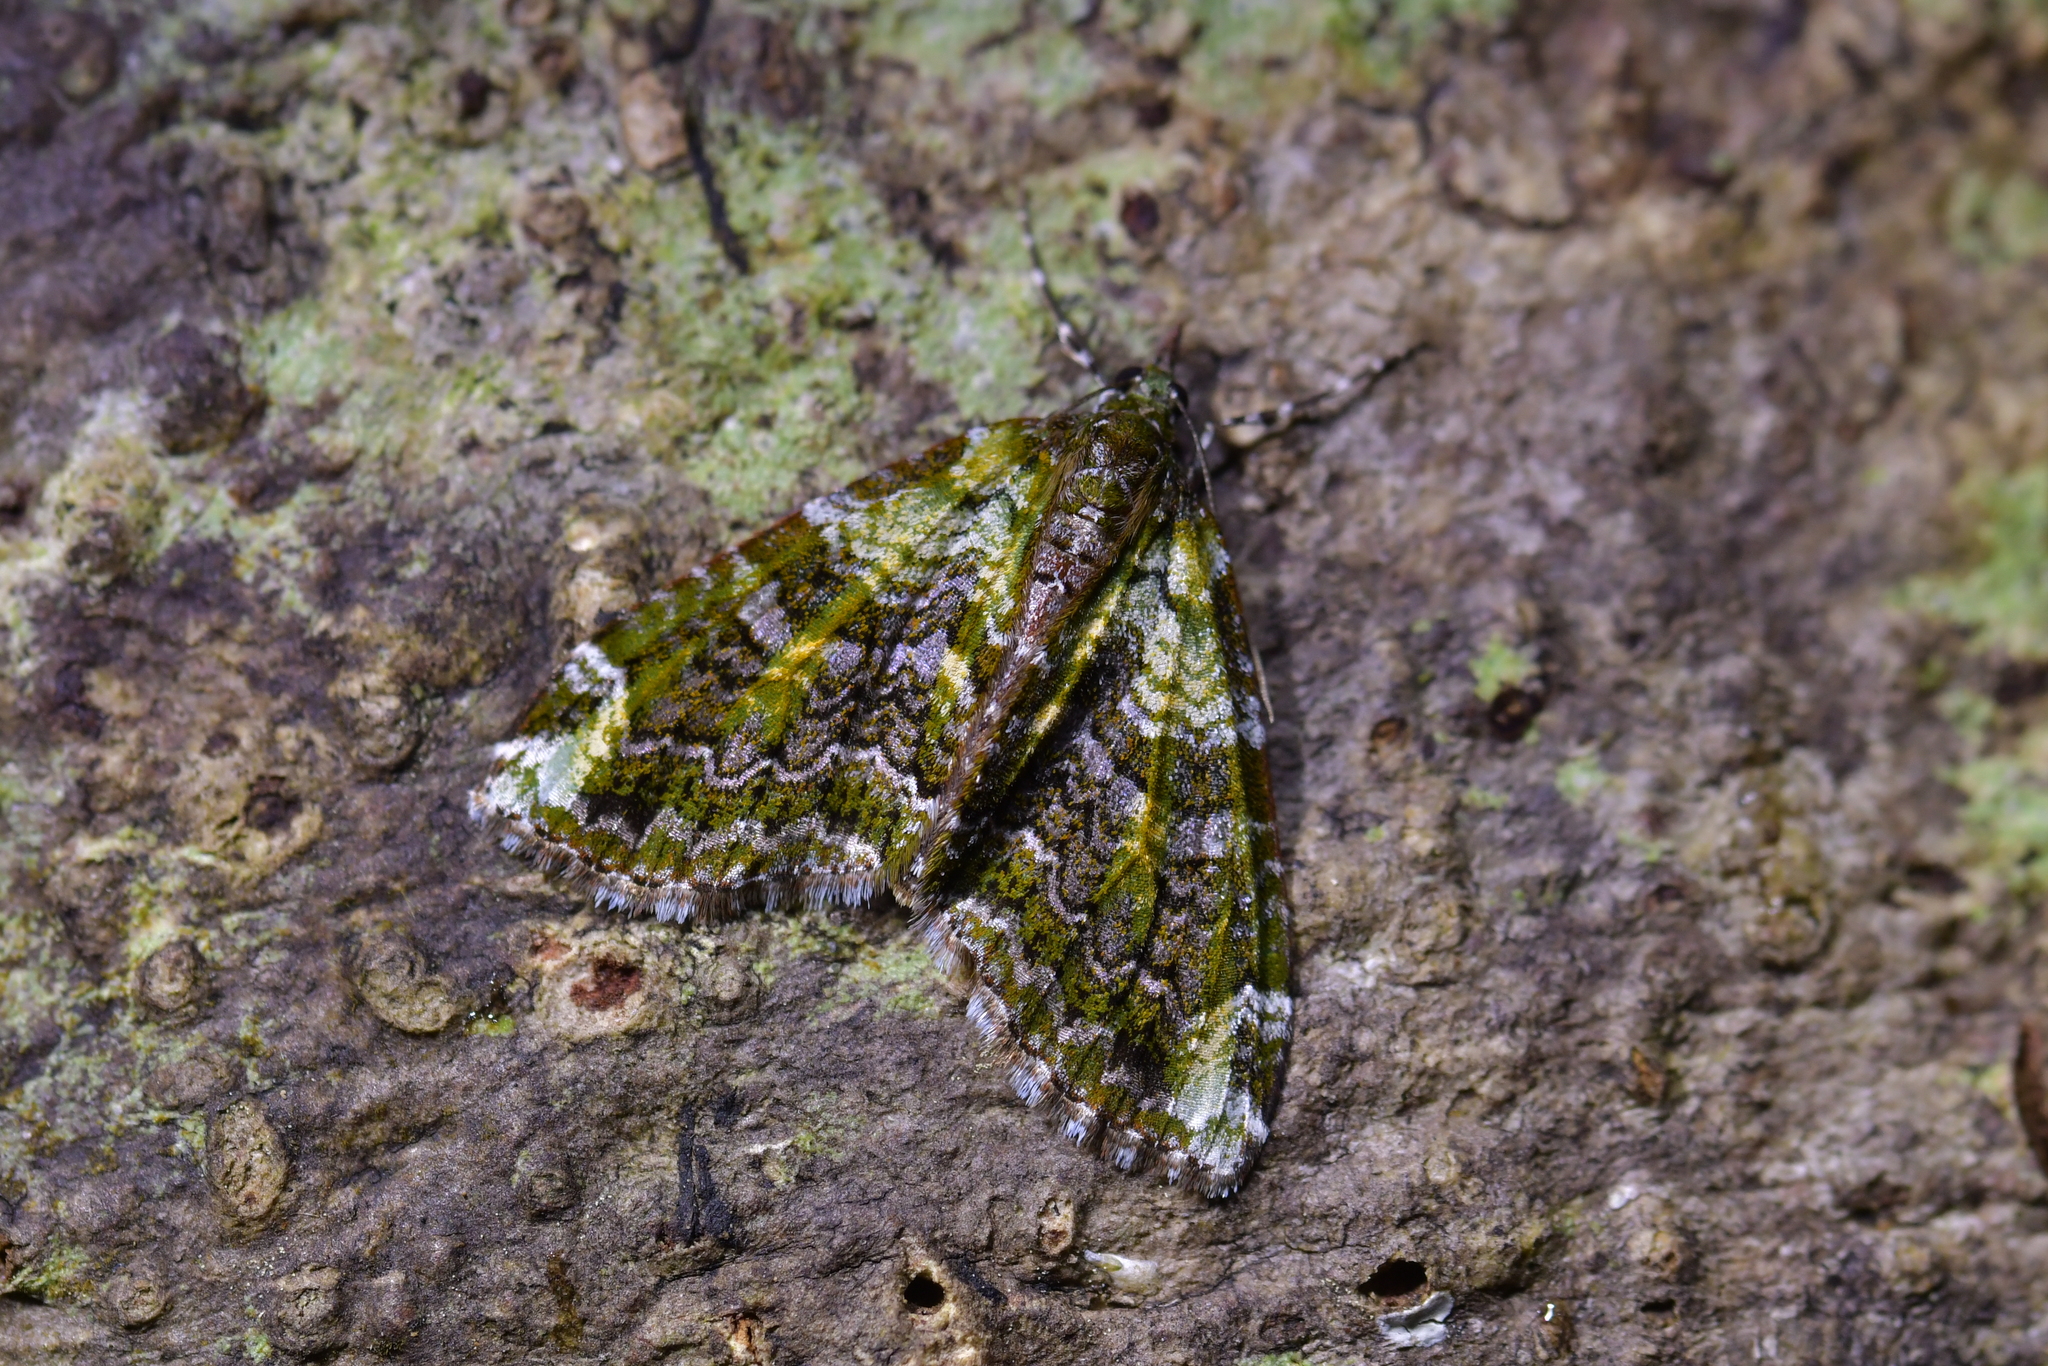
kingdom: Animalia
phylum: Arthropoda
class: Insecta
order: Lepidoptera
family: Geometridae
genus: Tatosoma
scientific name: Tatosoma apicipallida
